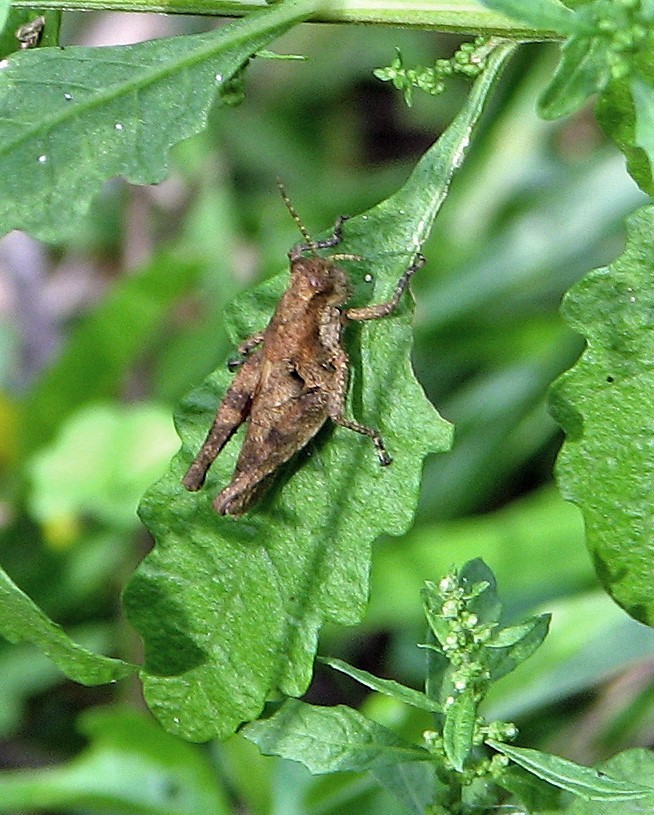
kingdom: Animalia
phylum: Arthropoda
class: Insecta
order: Orthoptera
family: Acrididae
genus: Ronderosia
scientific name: Ronderosia bergii
